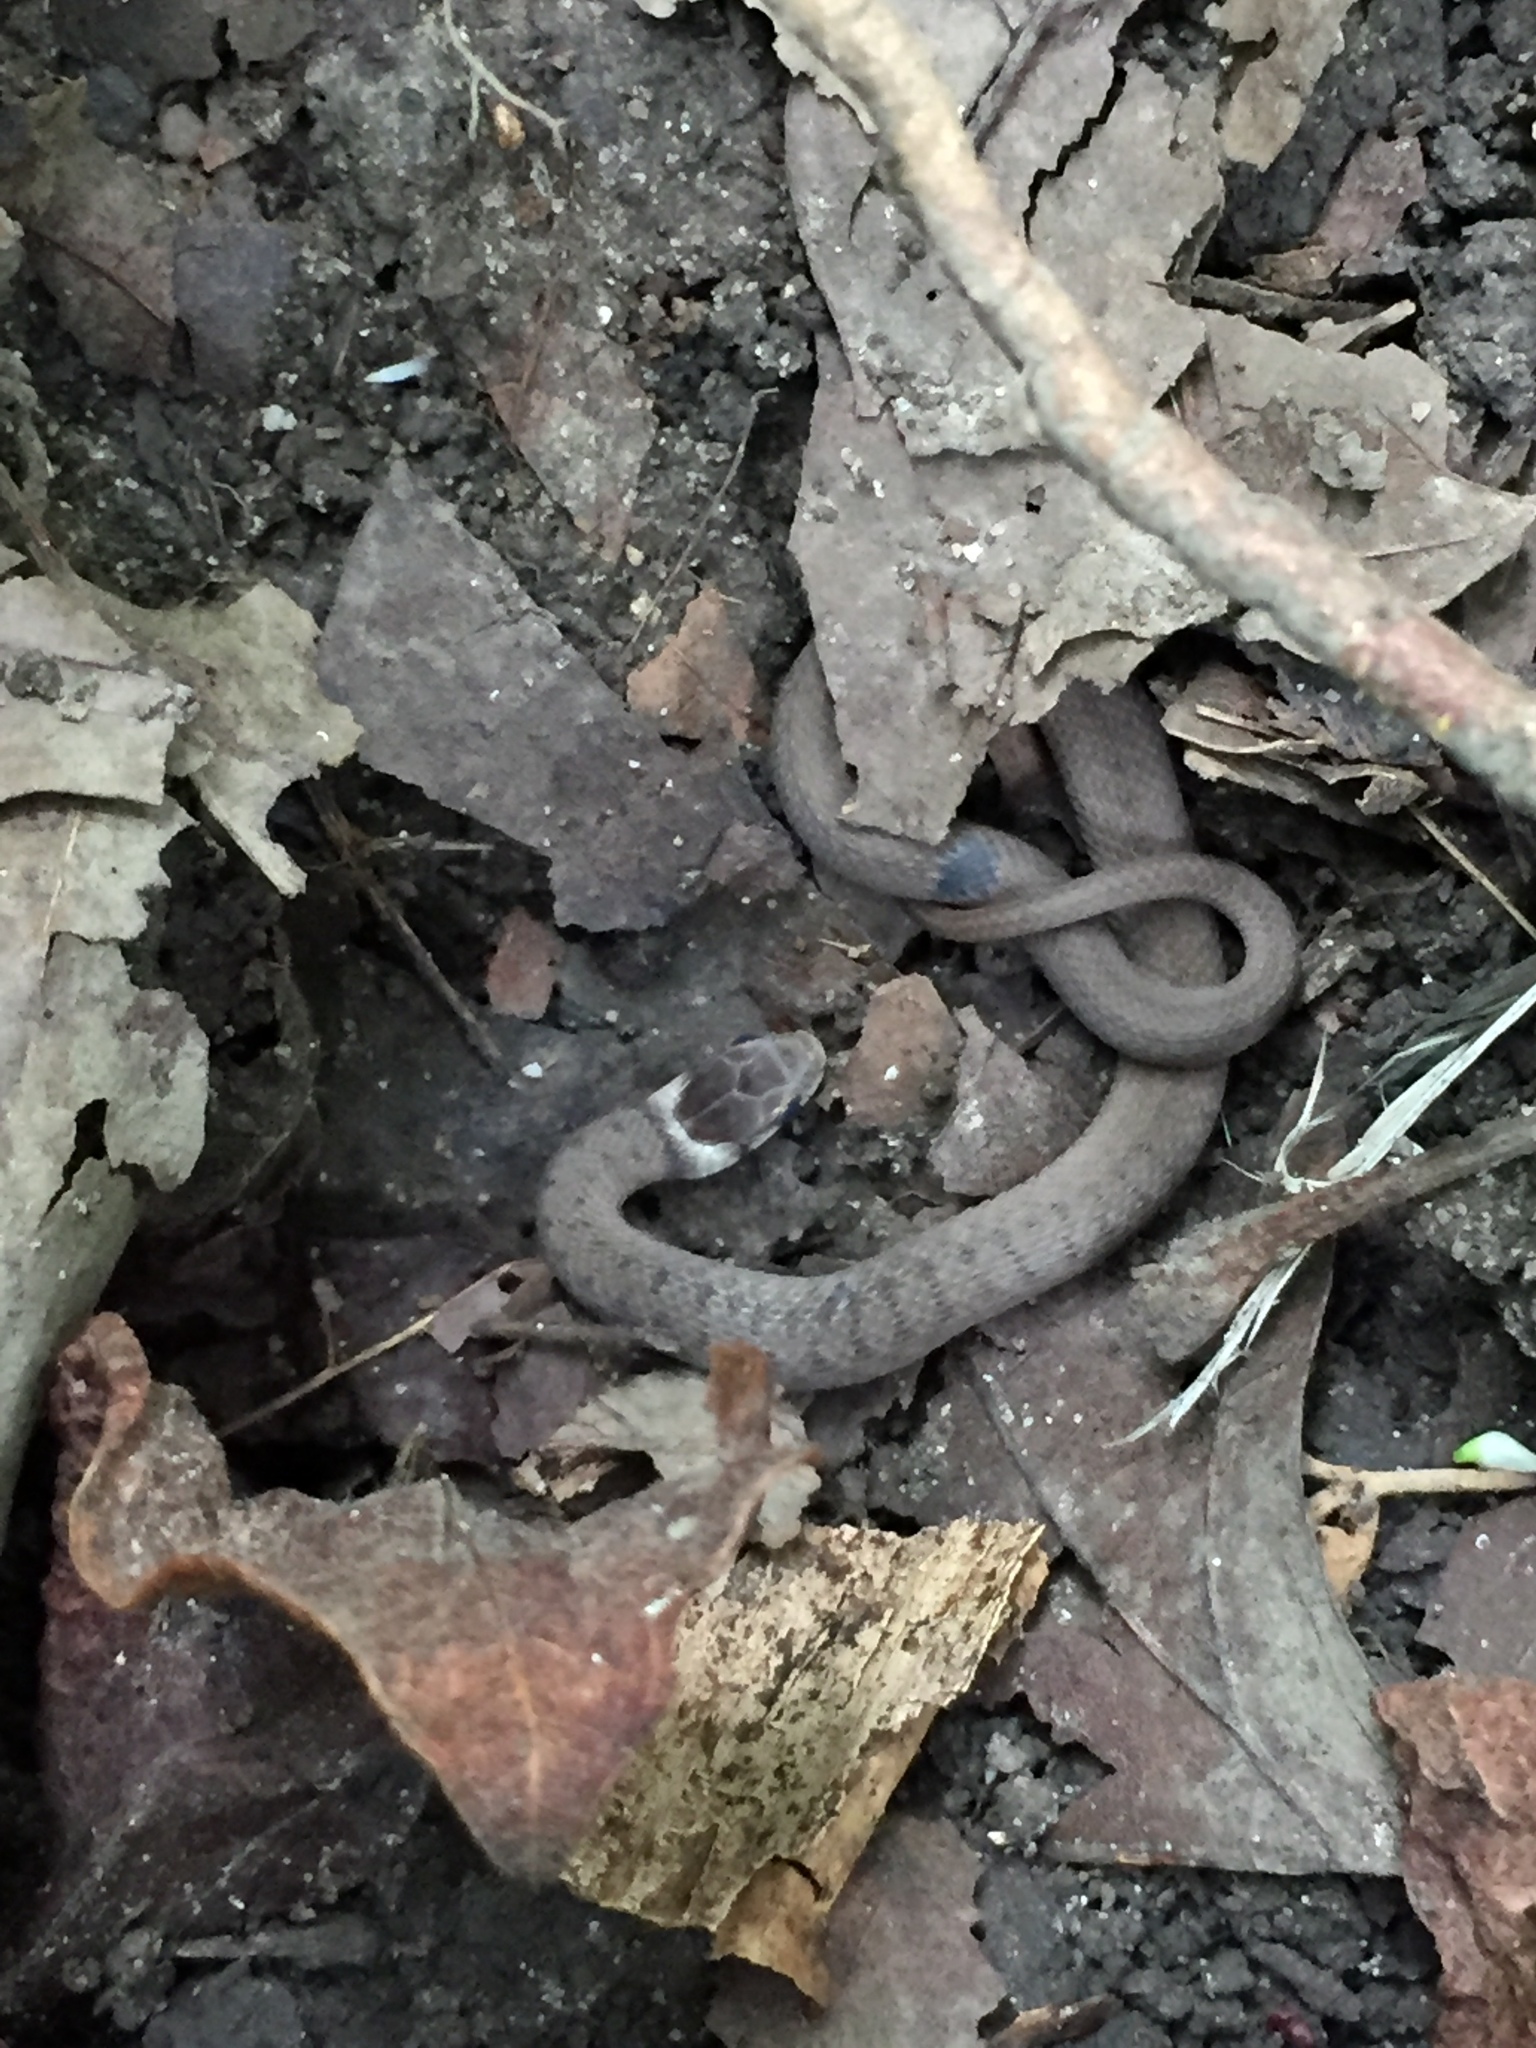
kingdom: Animalia
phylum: Chordata
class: Squamata
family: Colubridae
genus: Storeria
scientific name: Storeria dekayi
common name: (dekay’s) brown snake
